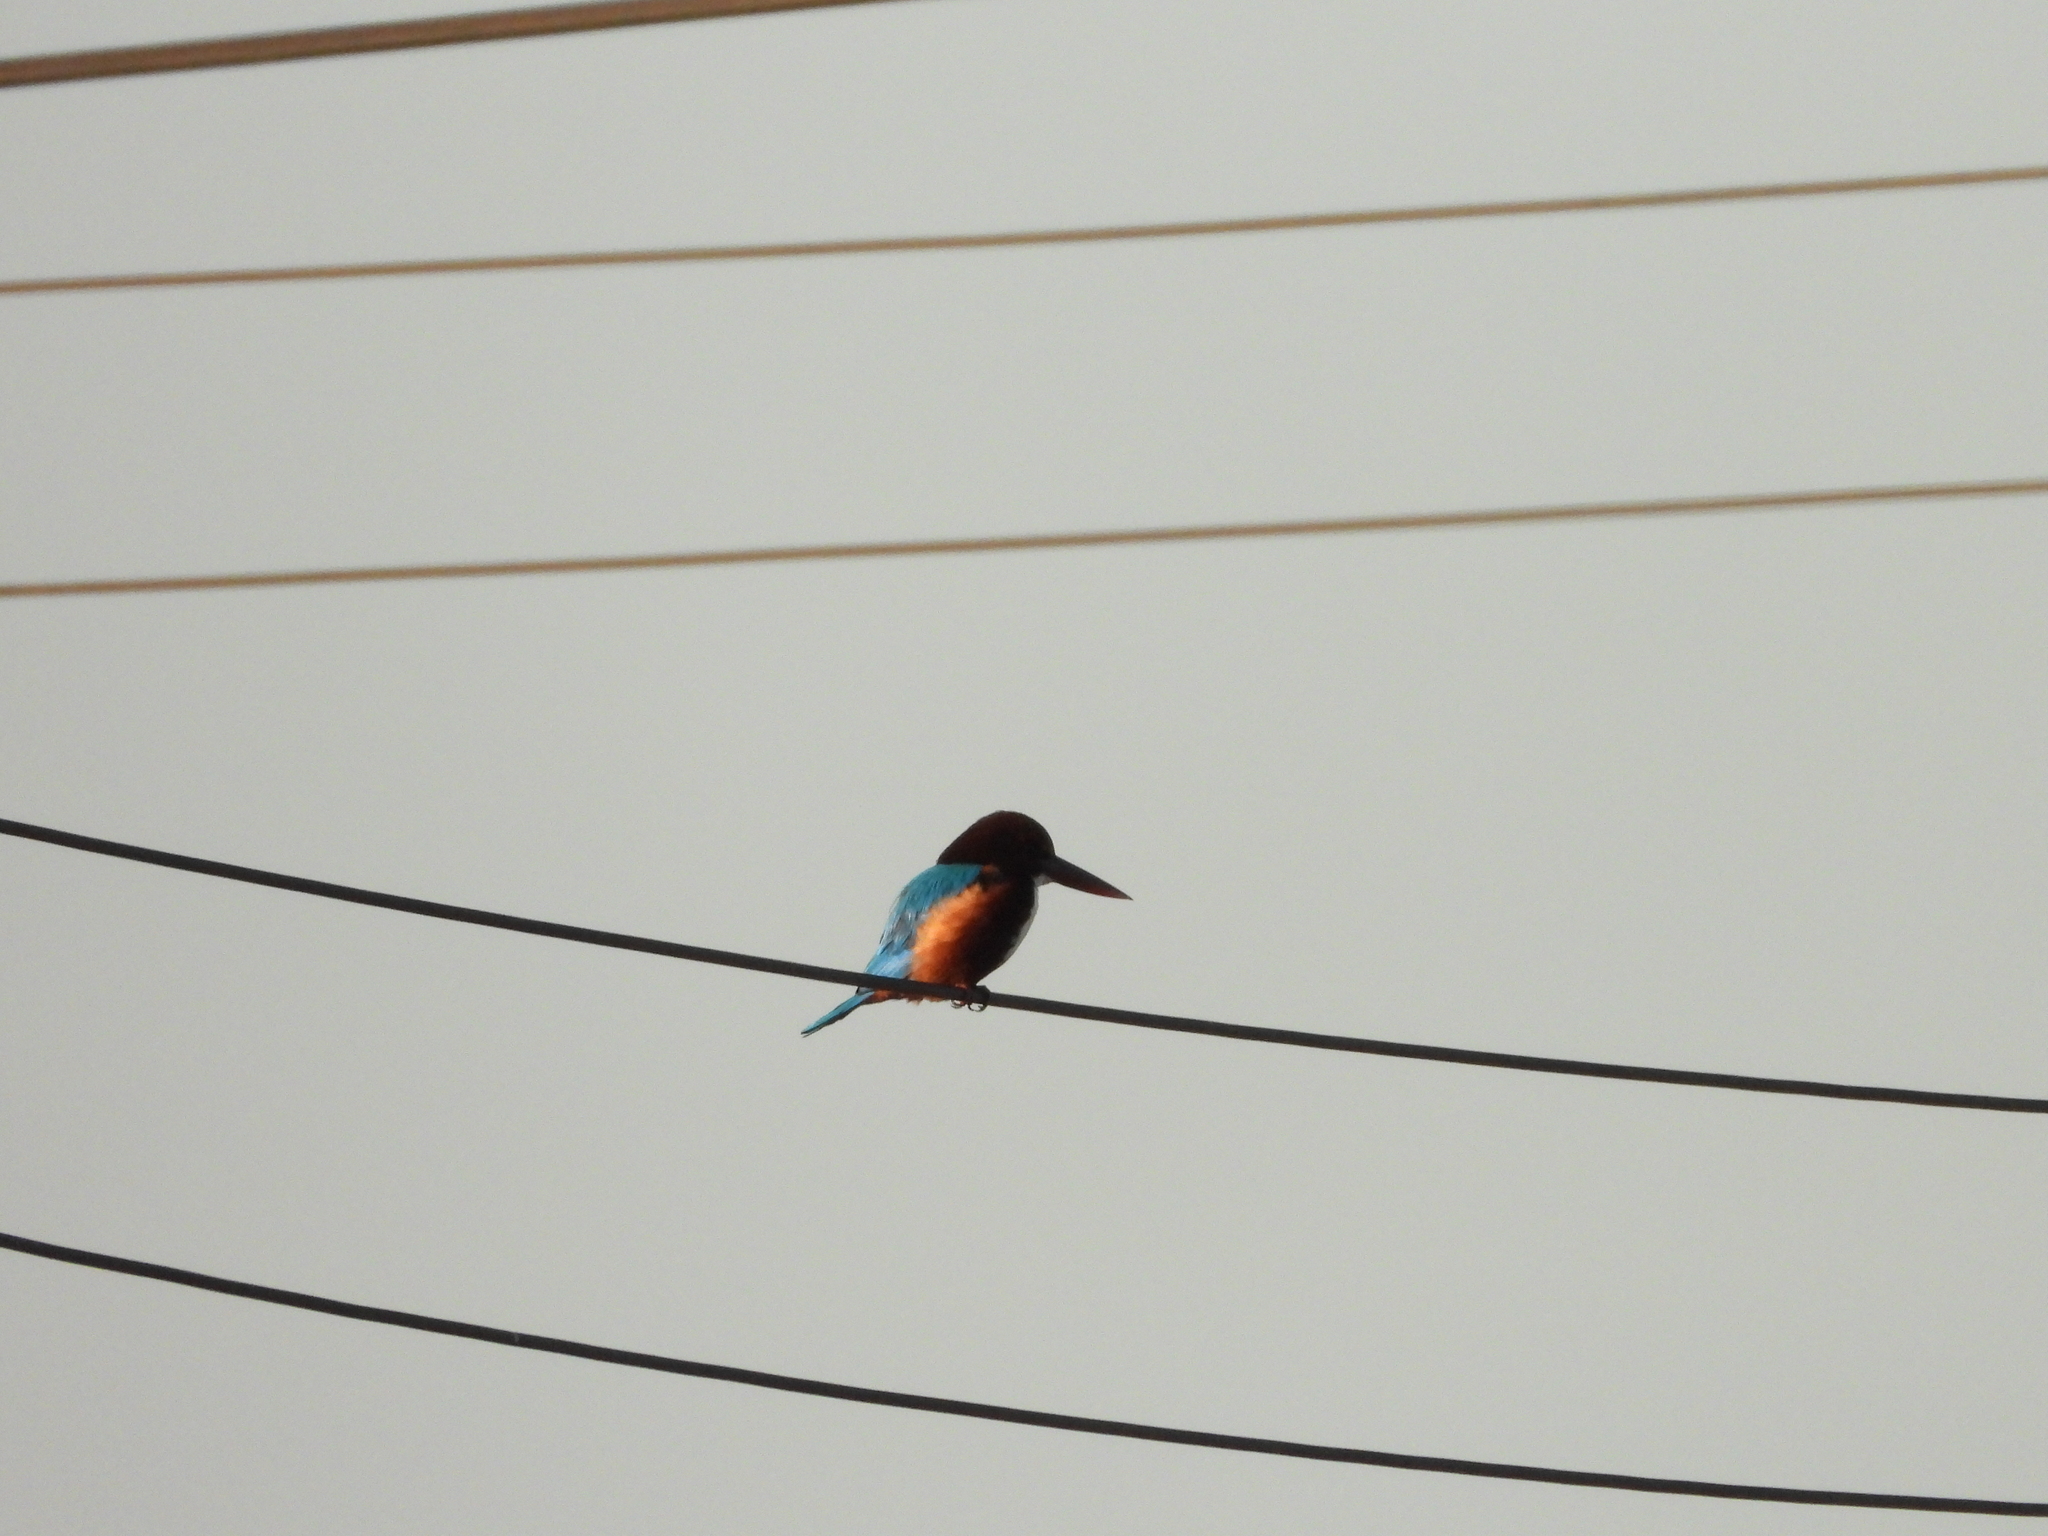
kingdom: Animalia
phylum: Chordata
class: Aves
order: Coraciiformes
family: Alcedinidae
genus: Halcyon
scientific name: Halcyon smyrnensis
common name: White-throated kingfisher
